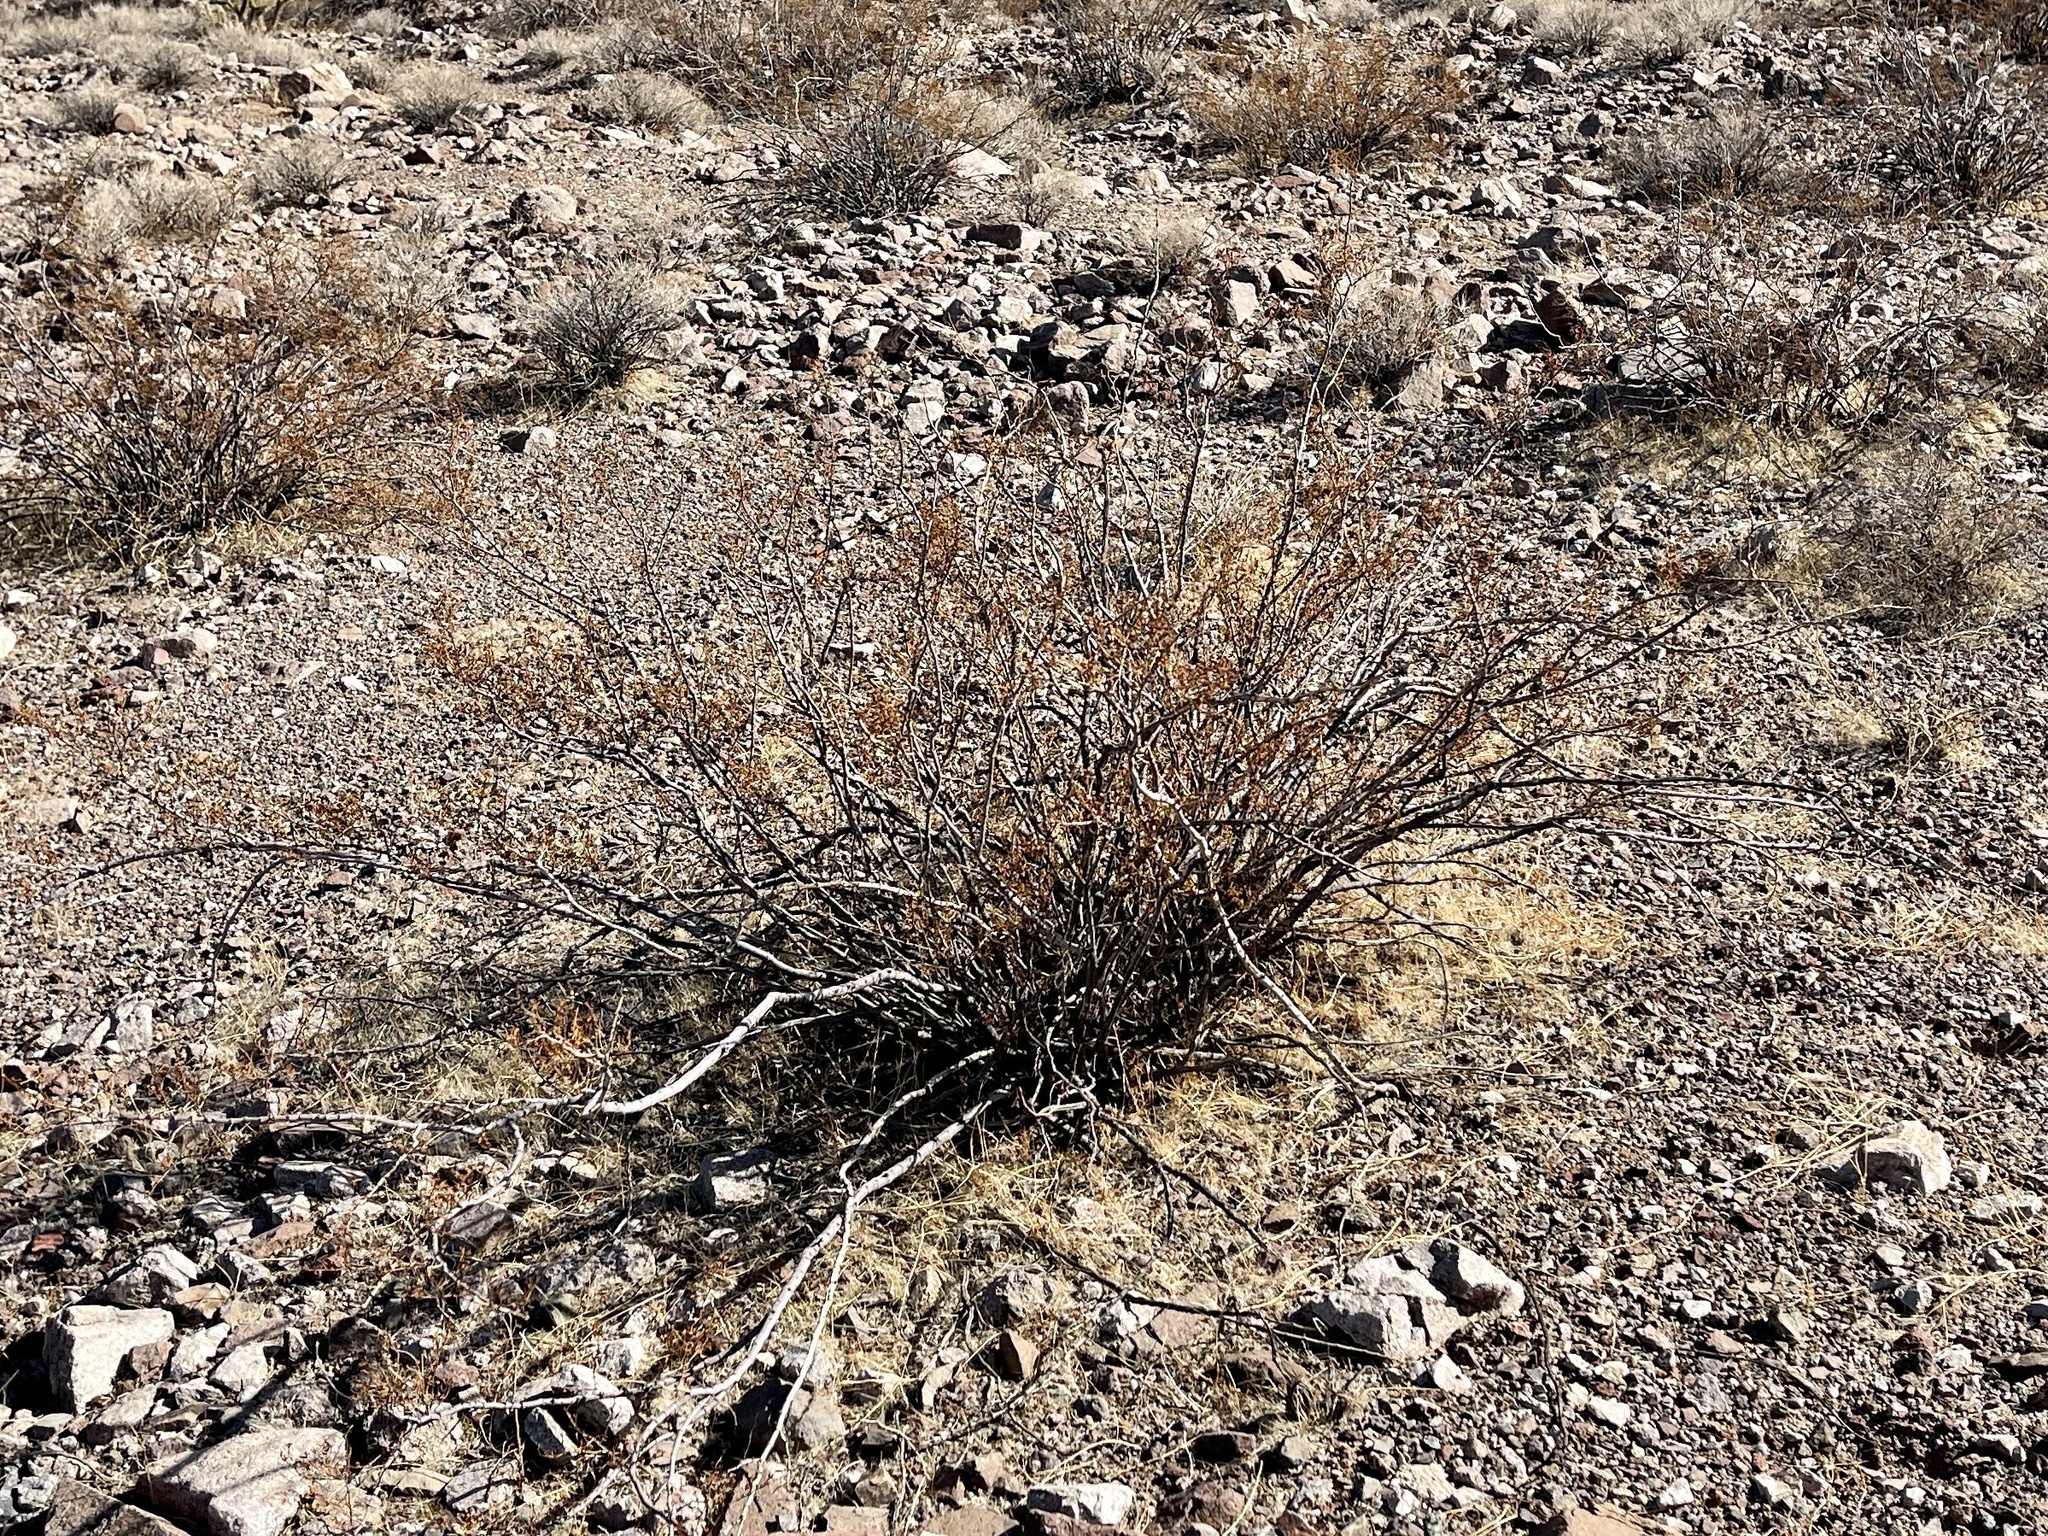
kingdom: Plantae
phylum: Tracheophyta
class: Magnoliopsida
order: Zygophyllales
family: Zygophyllaceae
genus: Larrea
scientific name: Larrea tridentata
